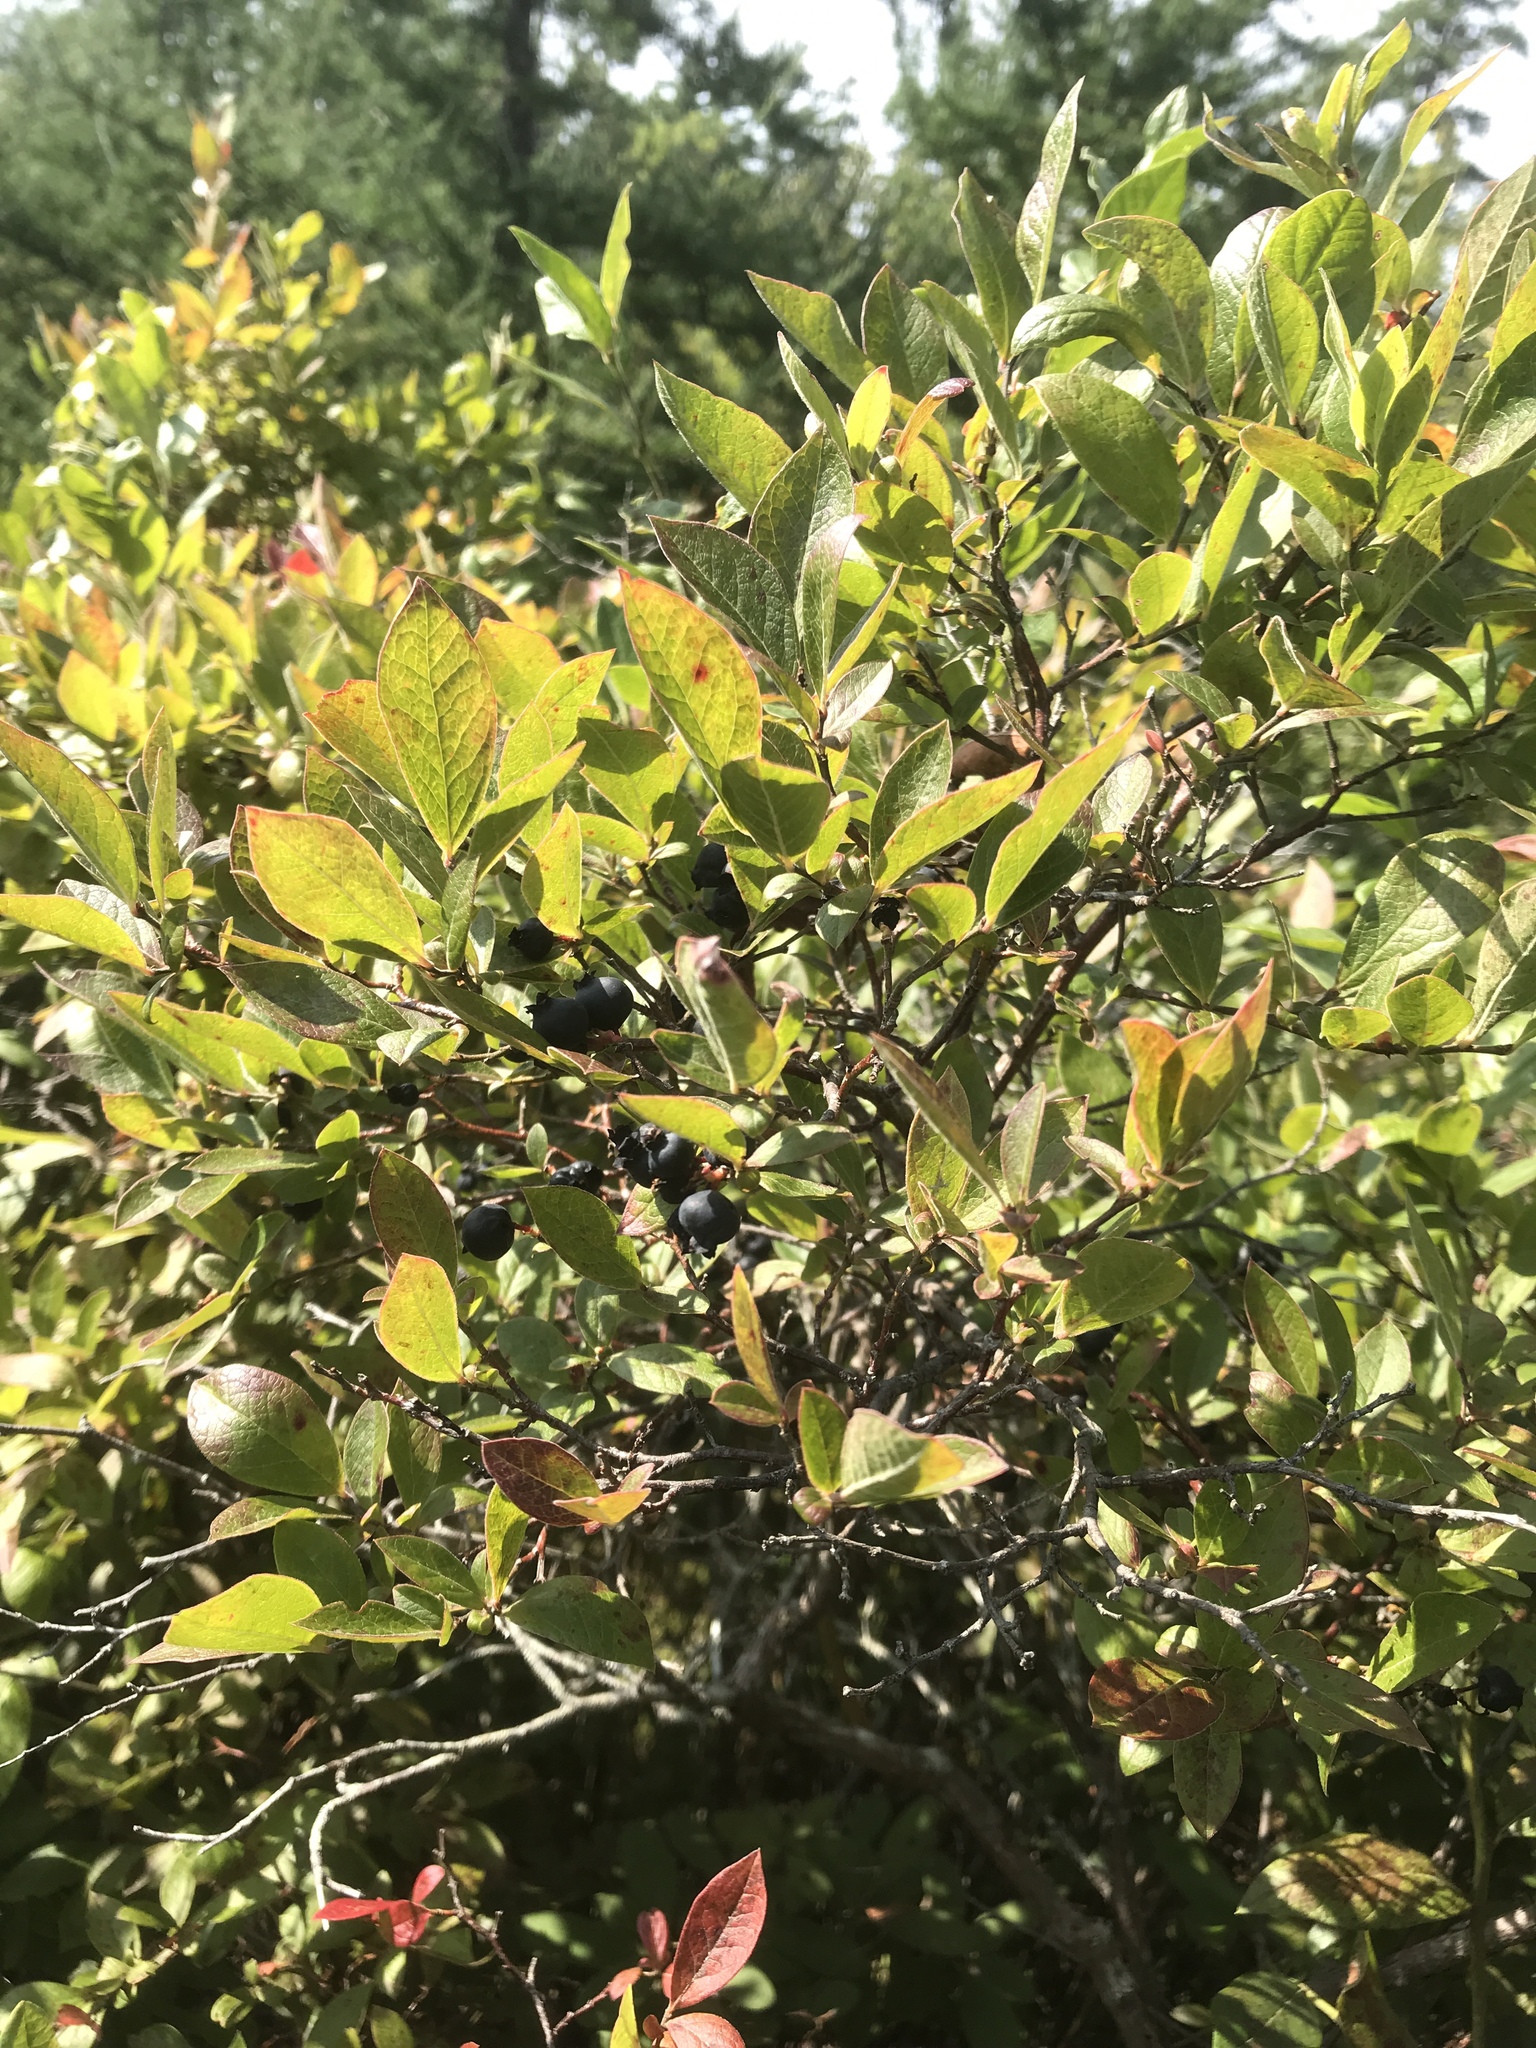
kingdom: Plantae
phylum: Tracheophyta
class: Magnoliopsida
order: Ericales
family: Ericaceae
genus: Gaylussacia
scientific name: Gaylussacia baccata
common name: Black huckleberry
